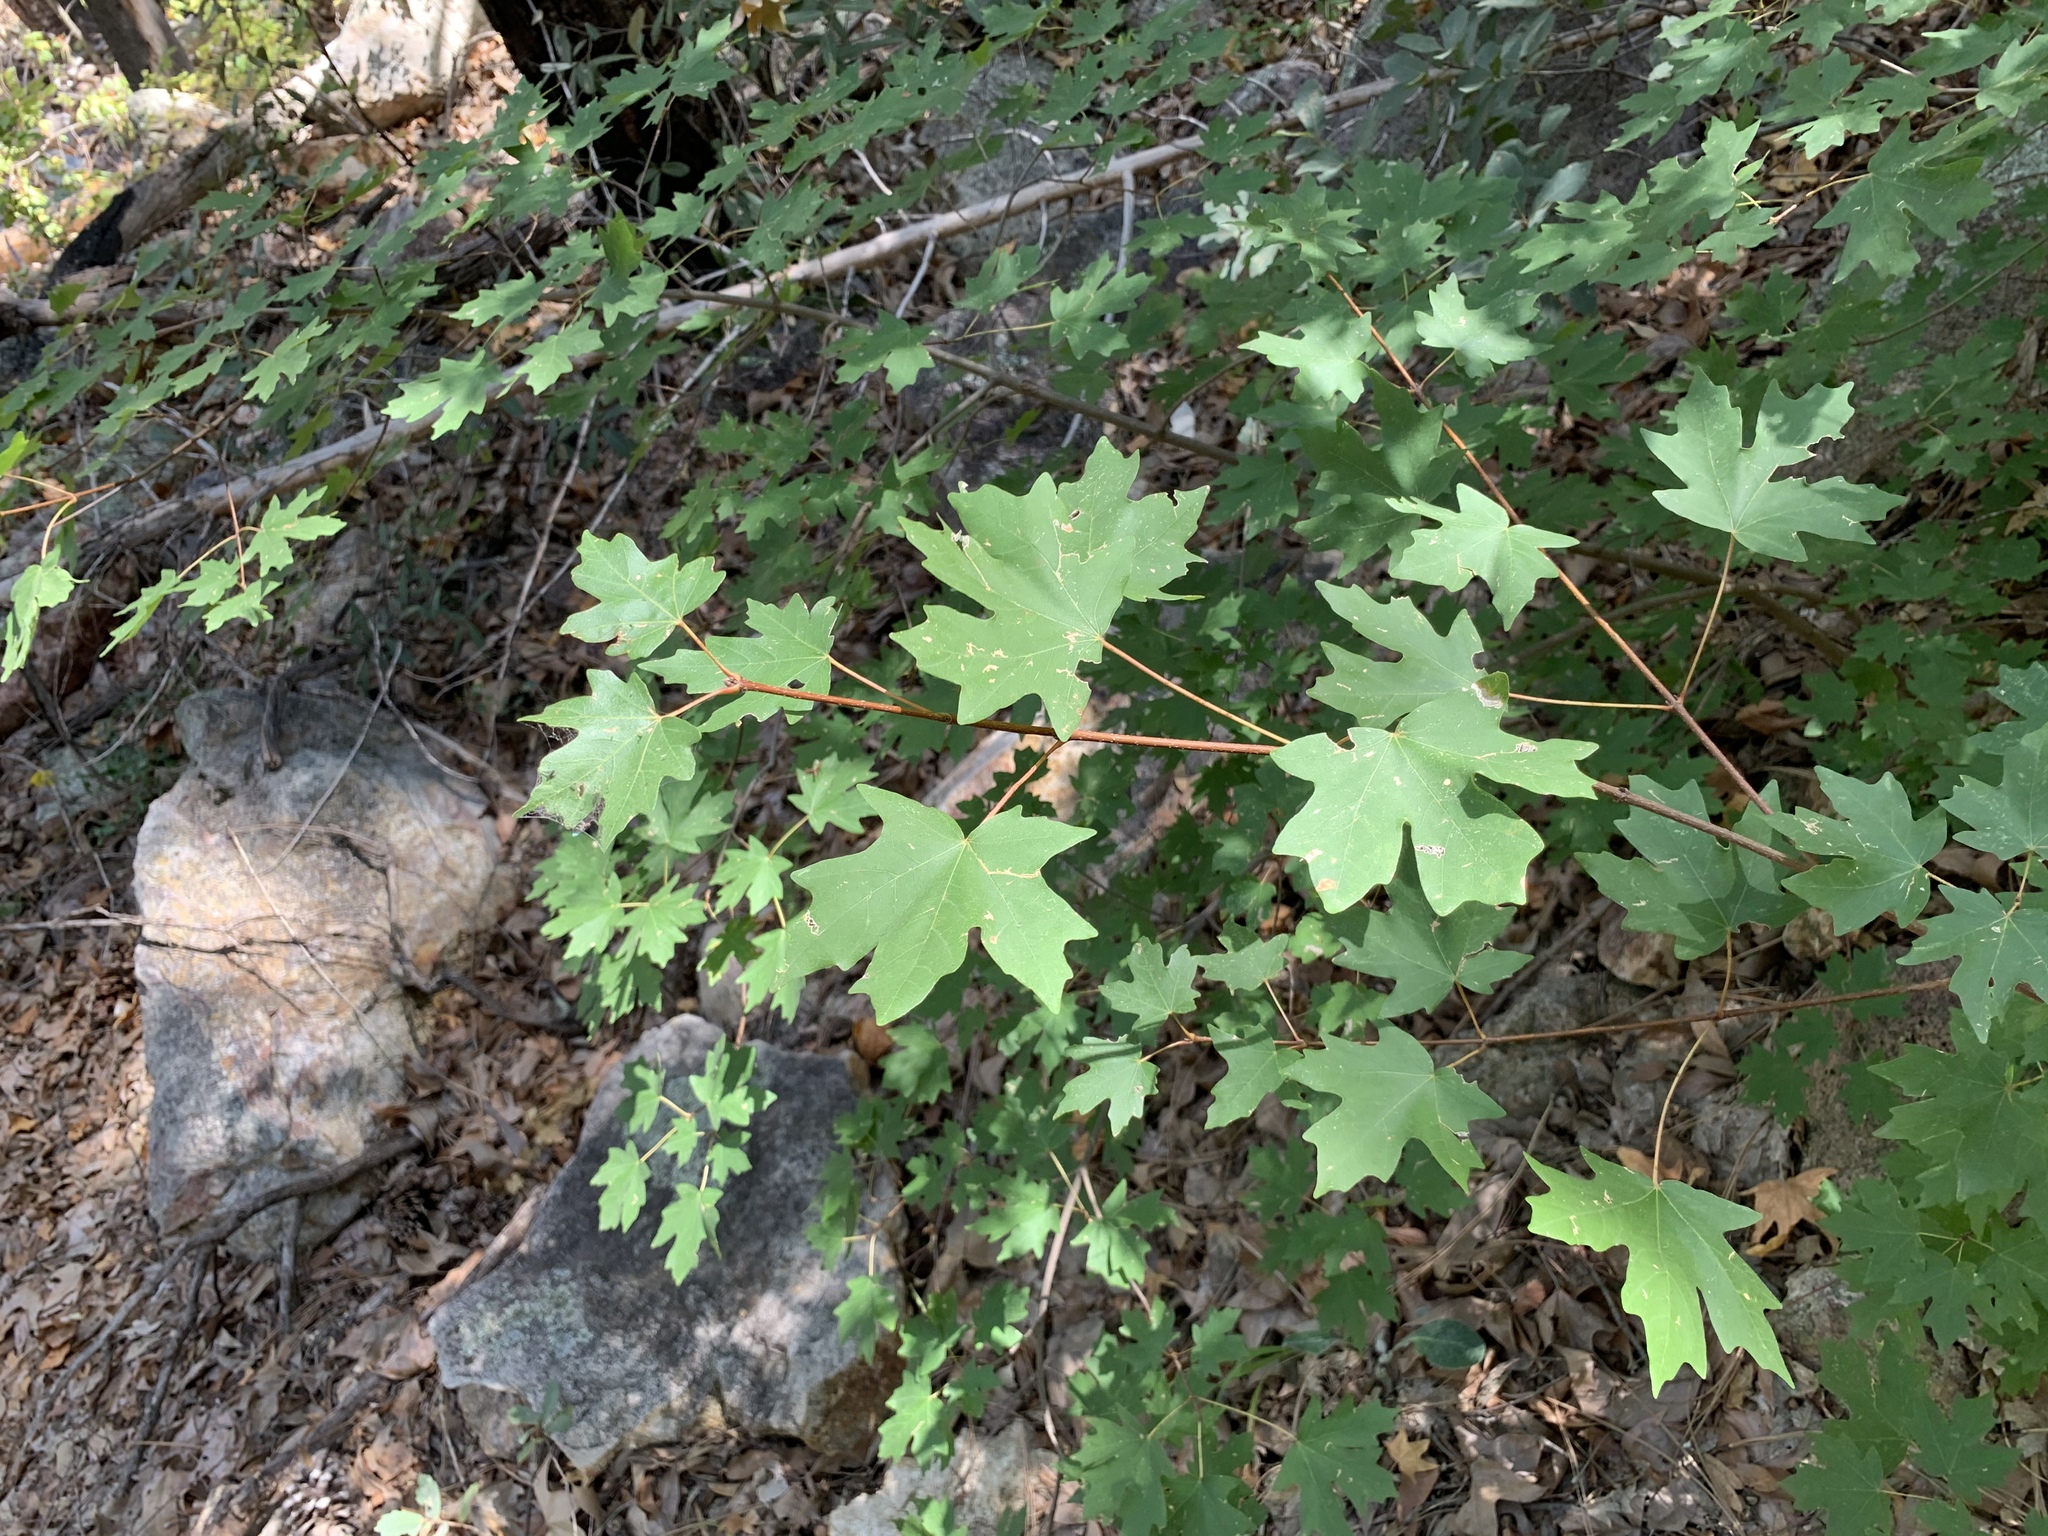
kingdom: Plantae
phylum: Tracheophyta
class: Magnoliopsida
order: Sapindales
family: Sapindaceae
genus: Acer
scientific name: Acer grandidentatum
